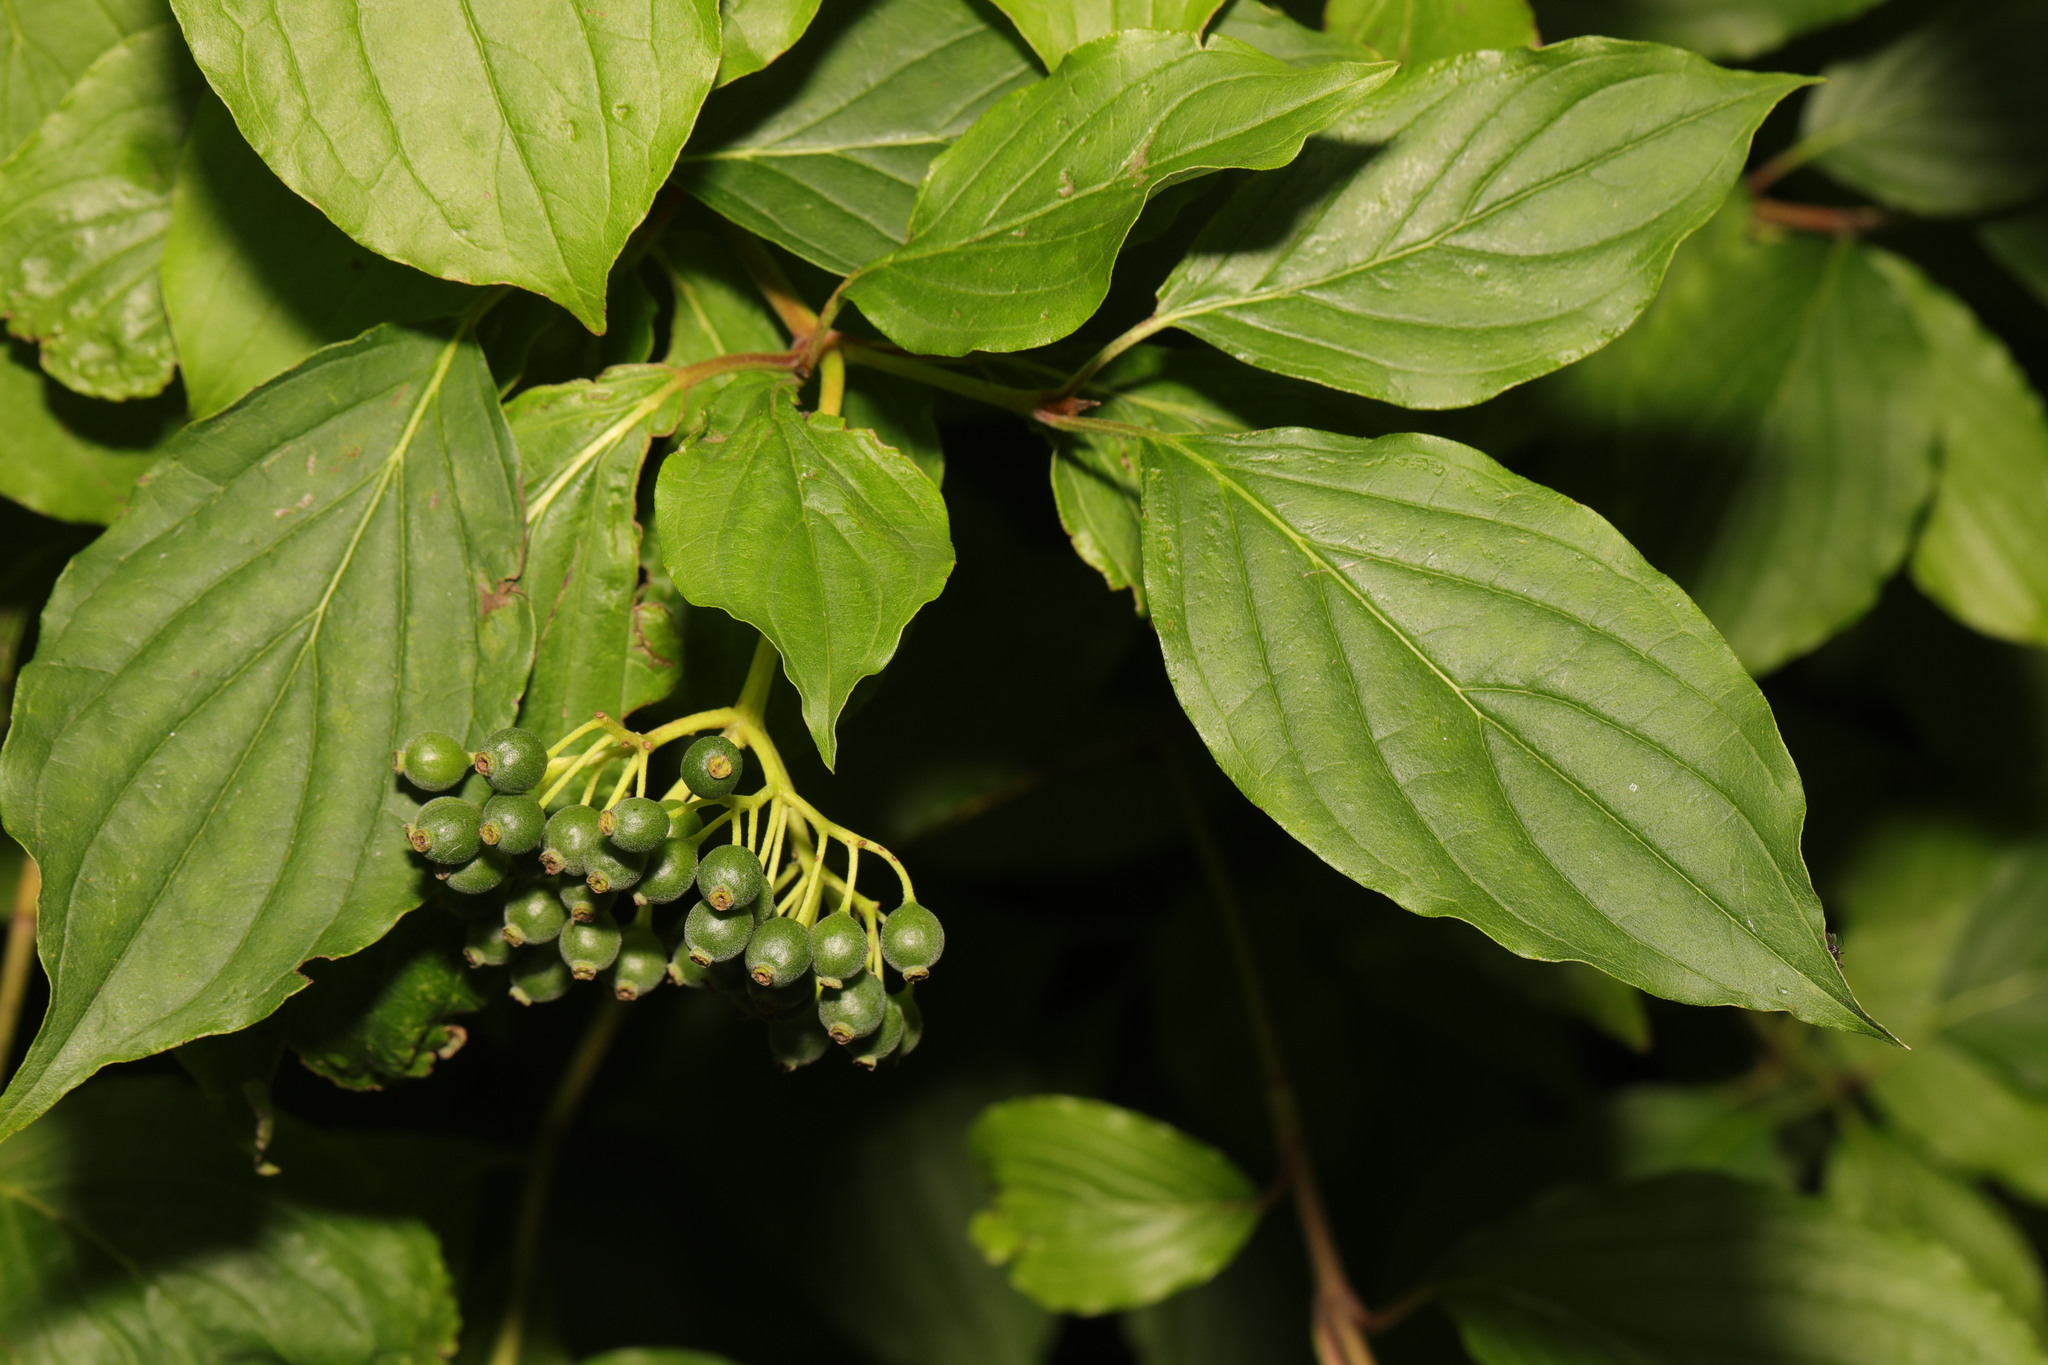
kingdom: Plantae
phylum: Tracheophyta
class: Magnoliopsida
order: Cornales
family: Cornaceae
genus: Cornus
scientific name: Cornus sanguinea
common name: Dogwood
